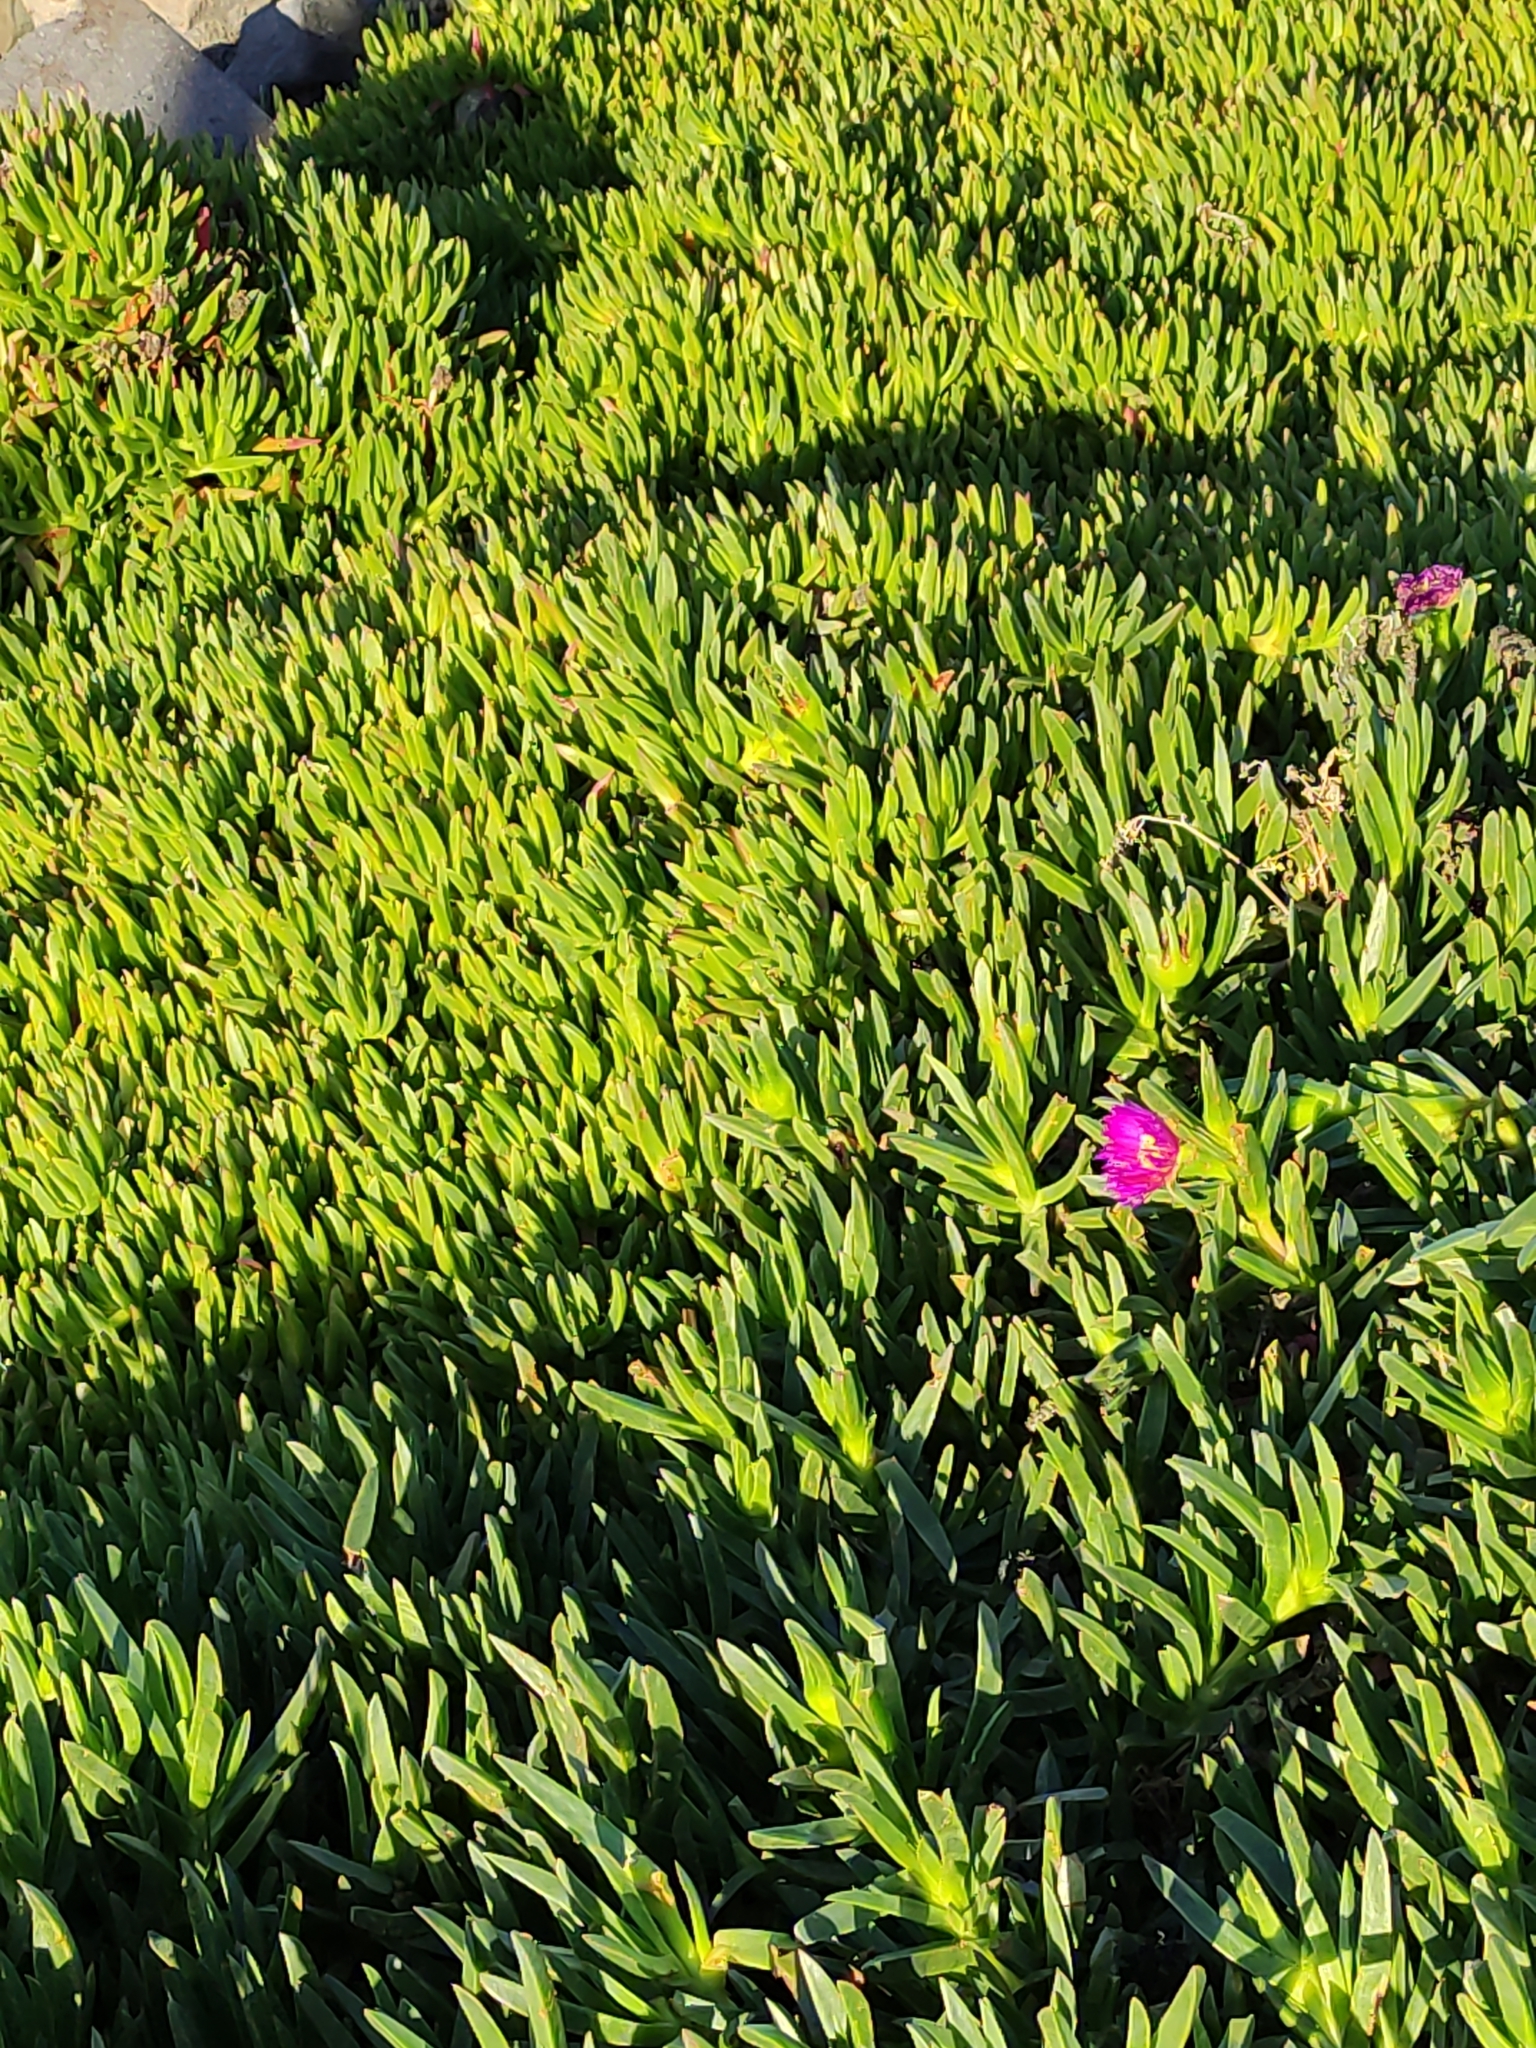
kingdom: Plantae
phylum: Tracheophyta
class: Magnoliopsida
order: Caryophyllales
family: Aizoaceae
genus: Carpobrotus
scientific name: Carpobrotus chilensis
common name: Sea fig
